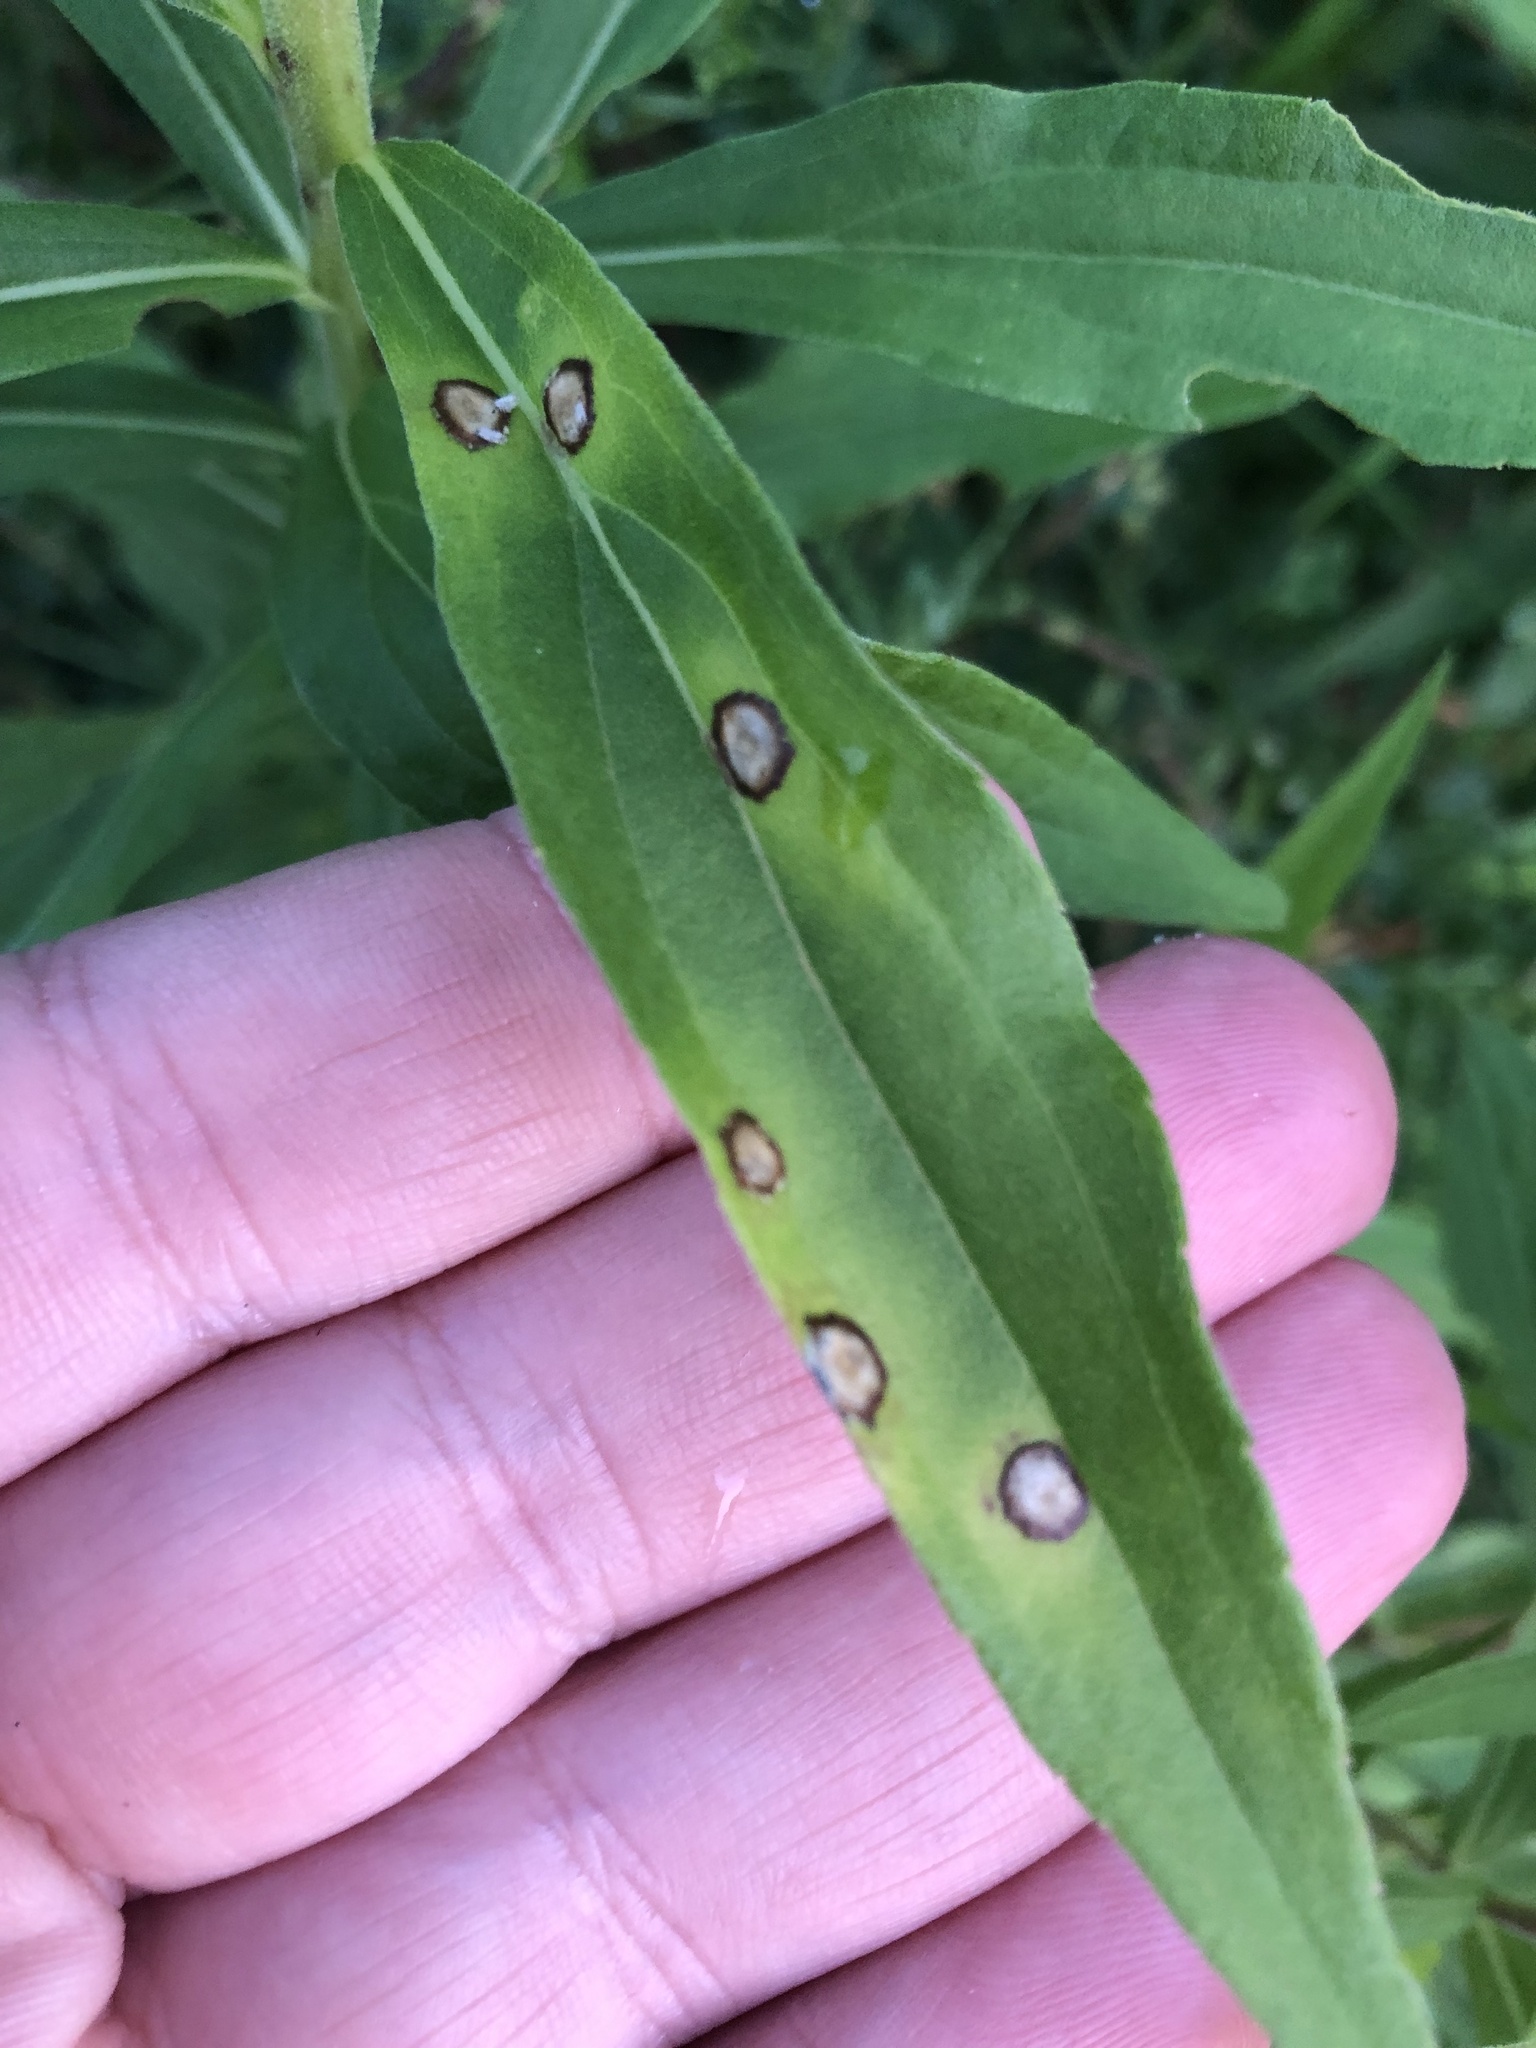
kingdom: Animalia
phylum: Arthropoda
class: Insecta
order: Diptera
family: Cecidomyiidae
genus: Asteromyia
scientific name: Asteromyia carbonifera
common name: Carbonifera goldenrod gall midge
